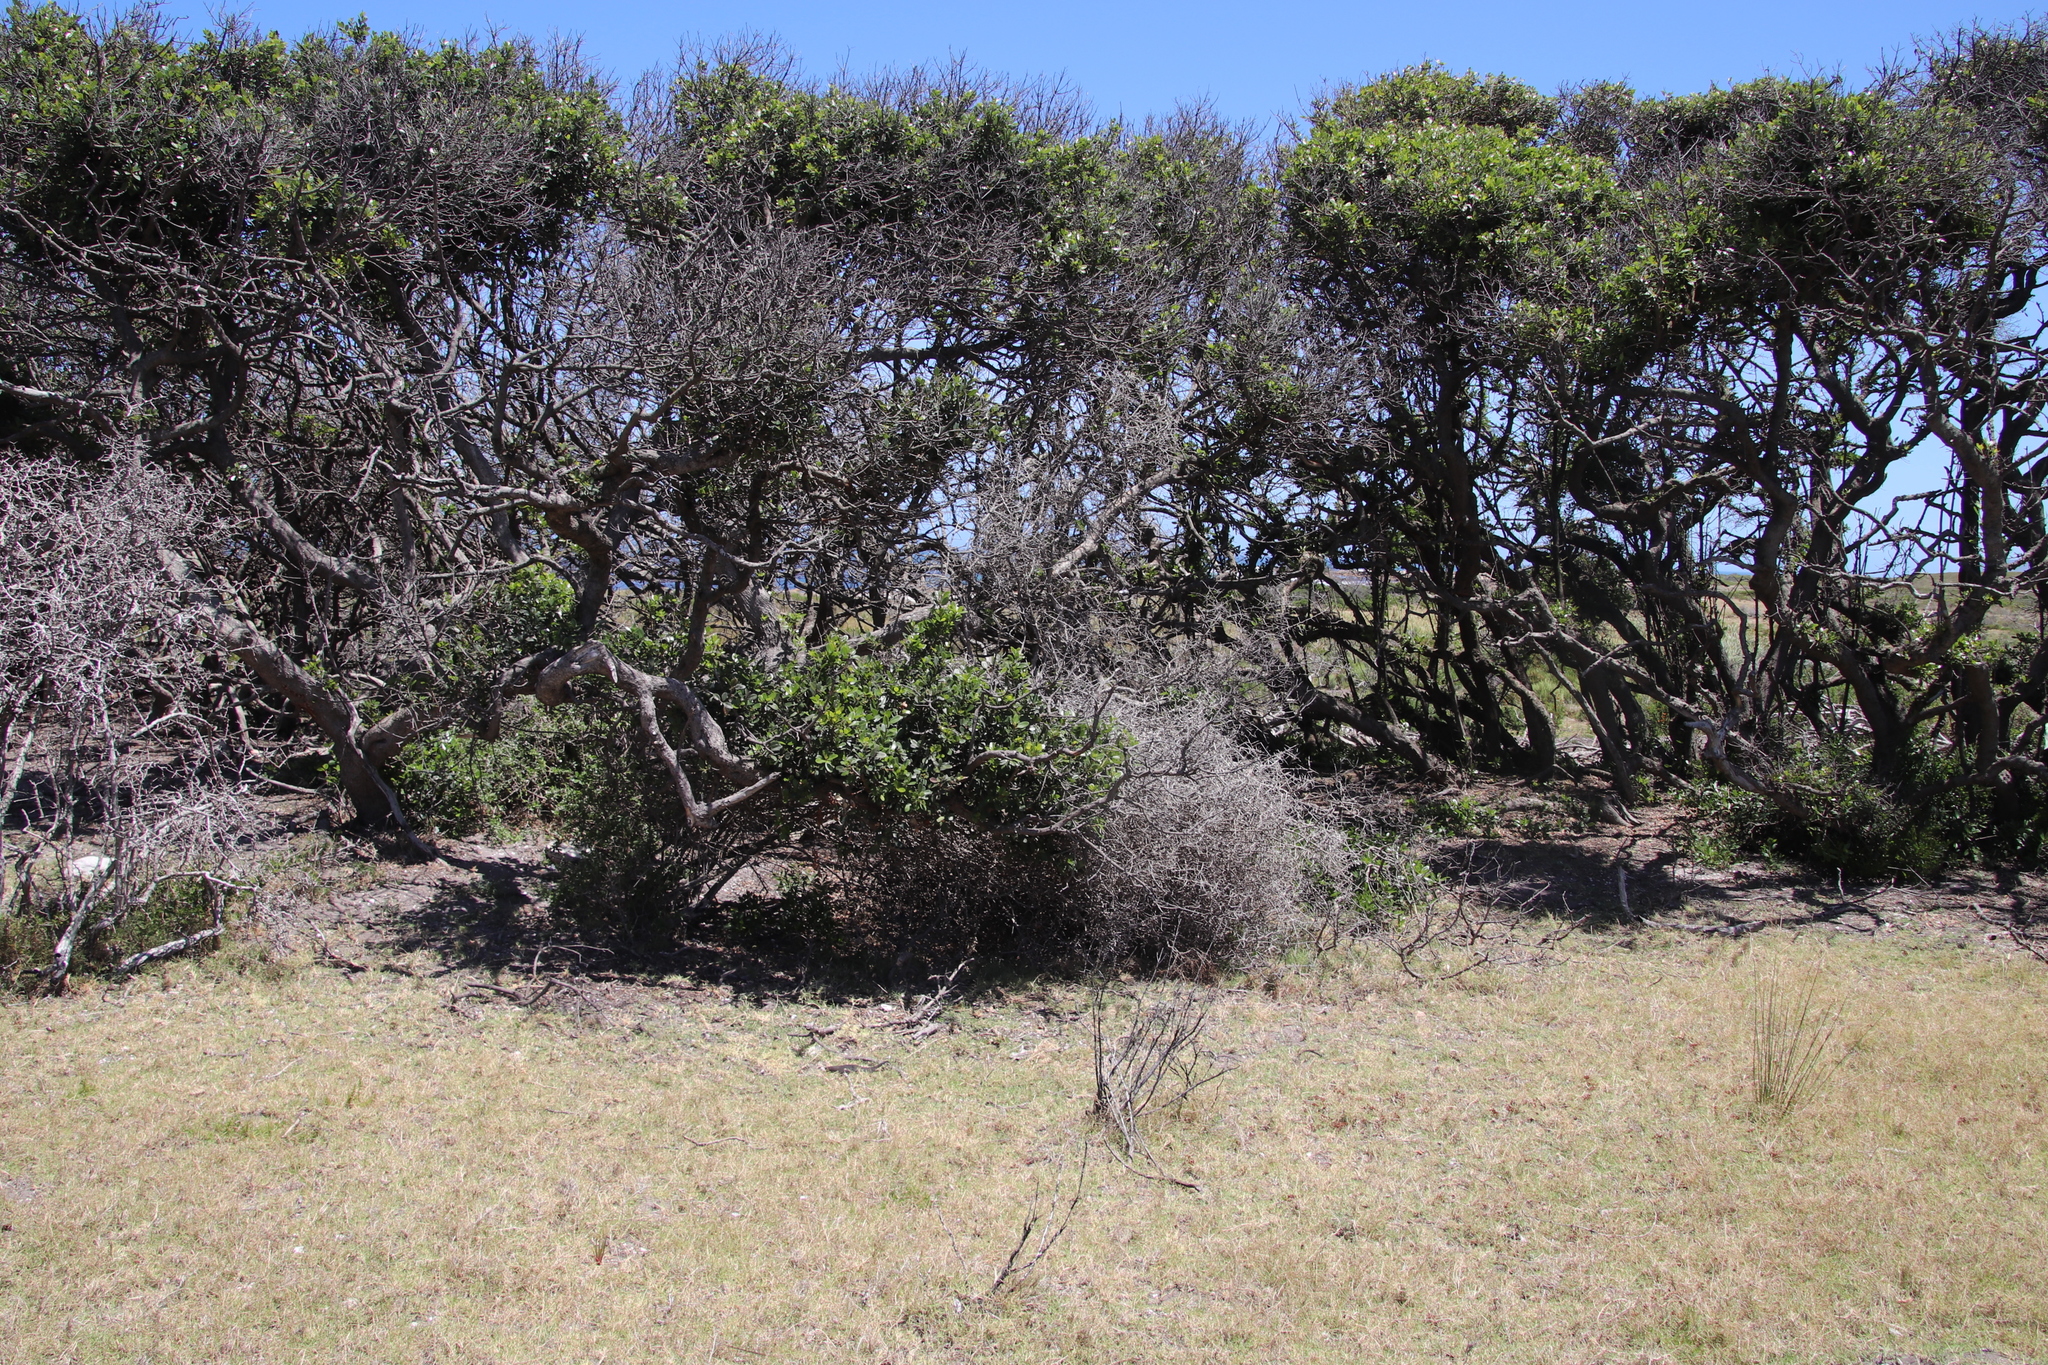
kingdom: Plantae
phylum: Tracheophyta
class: Magnoliopsida
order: Ericales
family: Sapotaceae
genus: Sideroxylon
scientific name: Sideroxylon inerme
